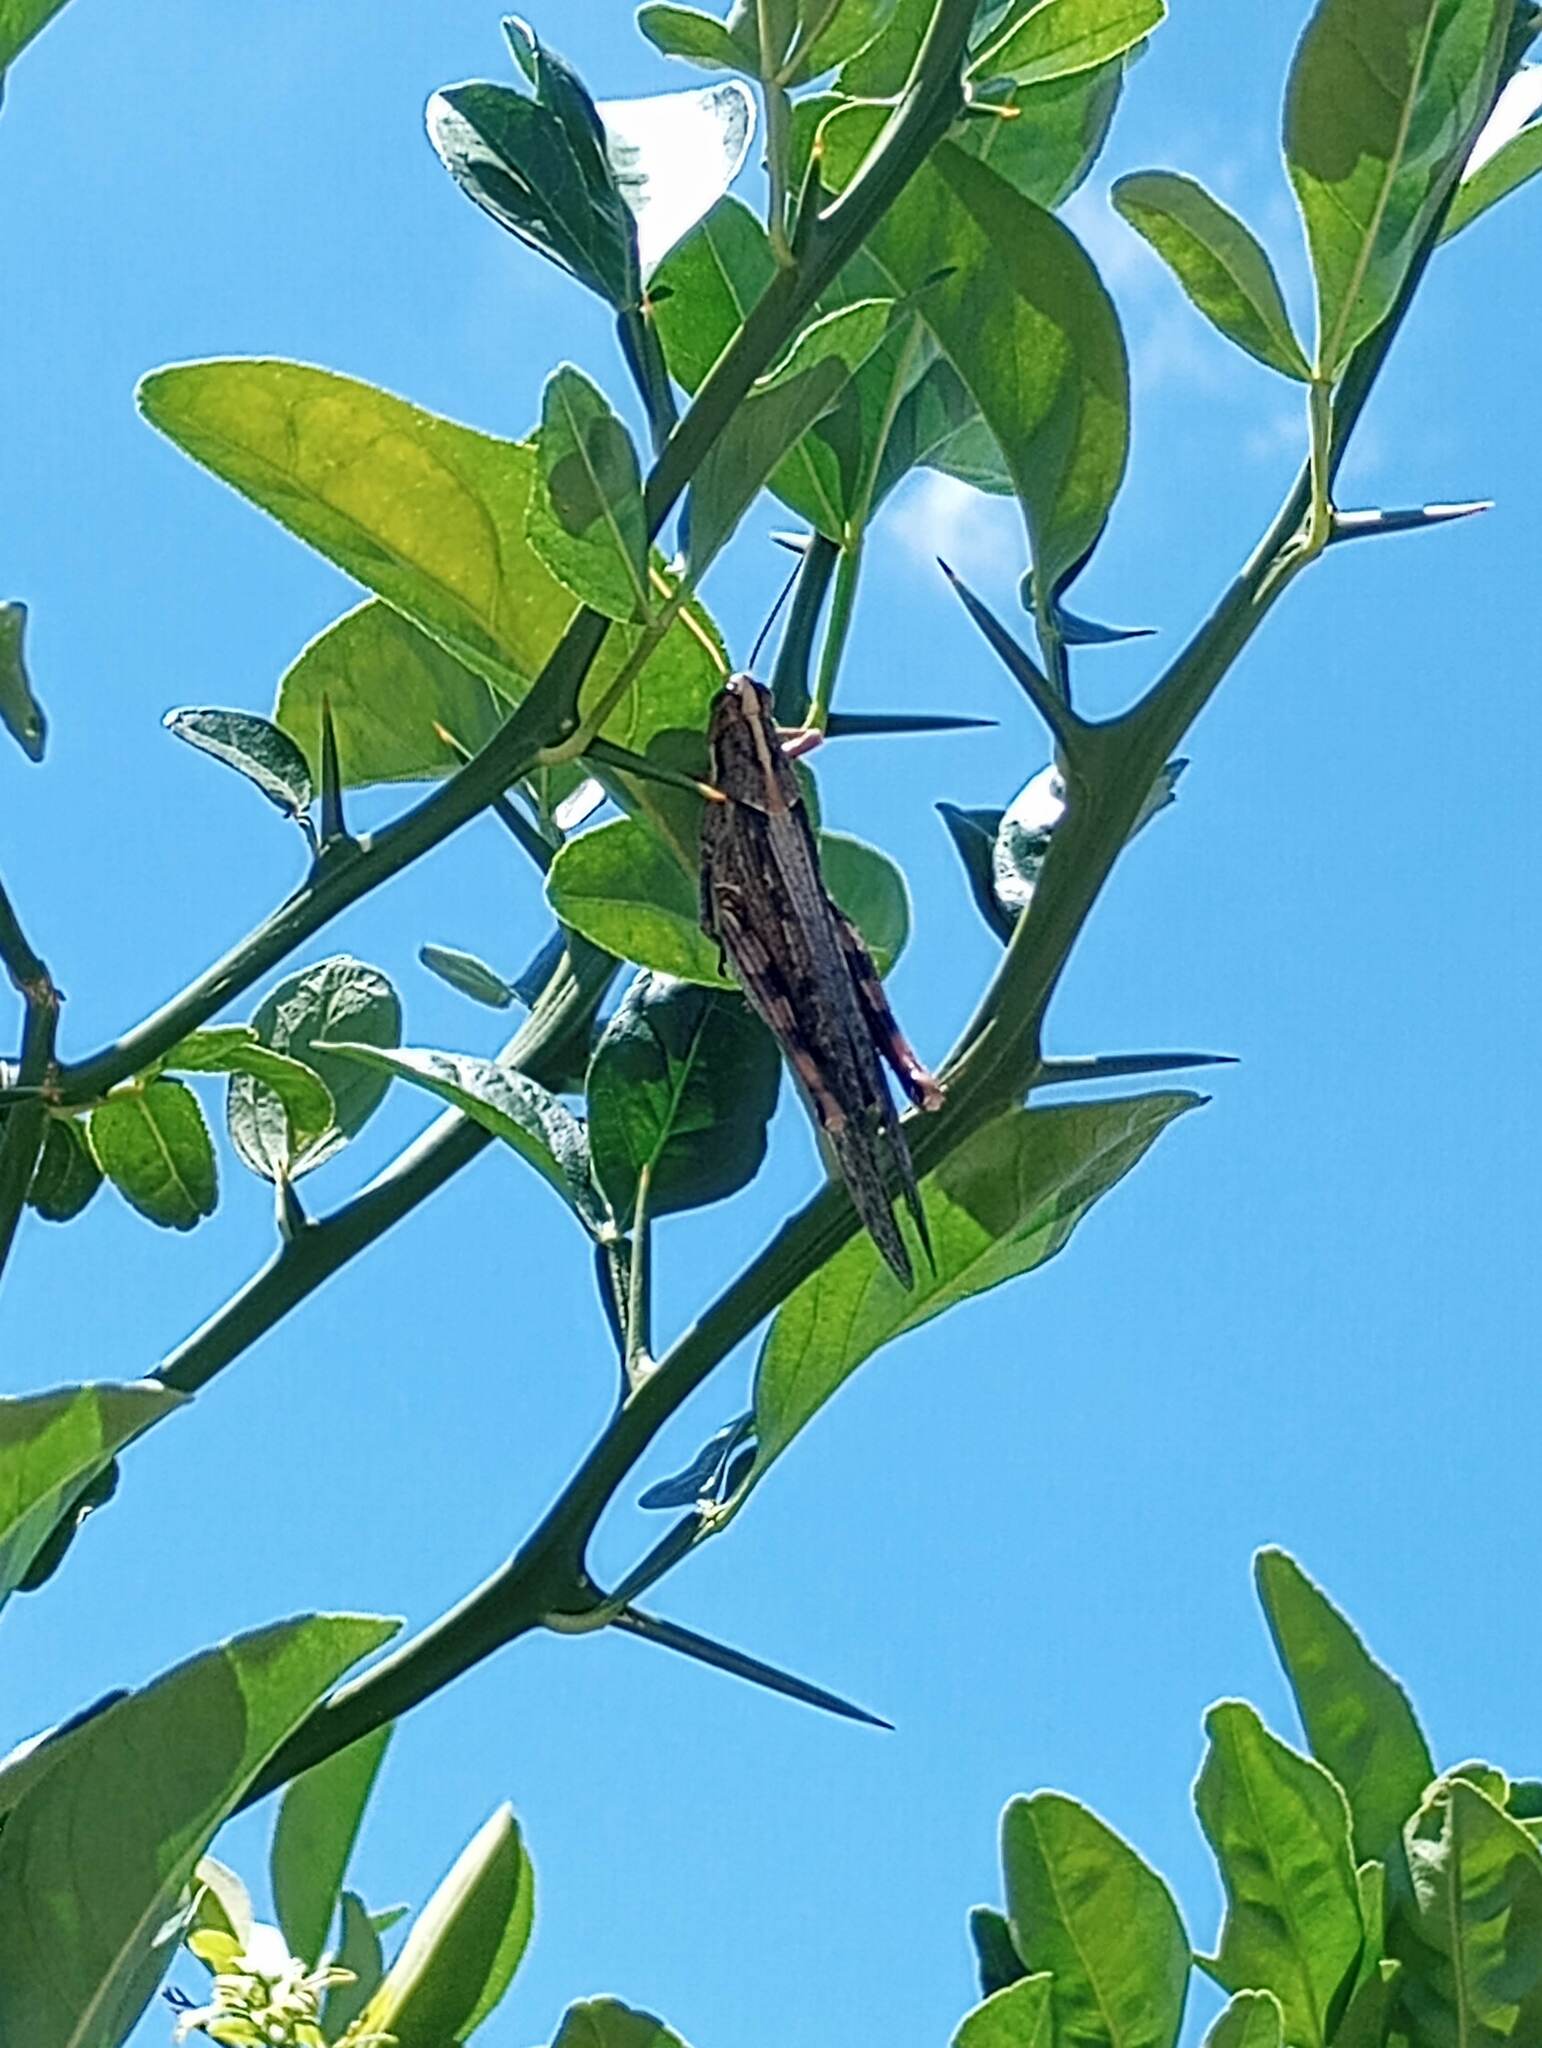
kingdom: Animalia
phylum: Arthropoda
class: Insecta
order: Orthoptera
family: Acrididae
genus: Schistocerca
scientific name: Schistocerca nitens
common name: Vagrant grasshopper
